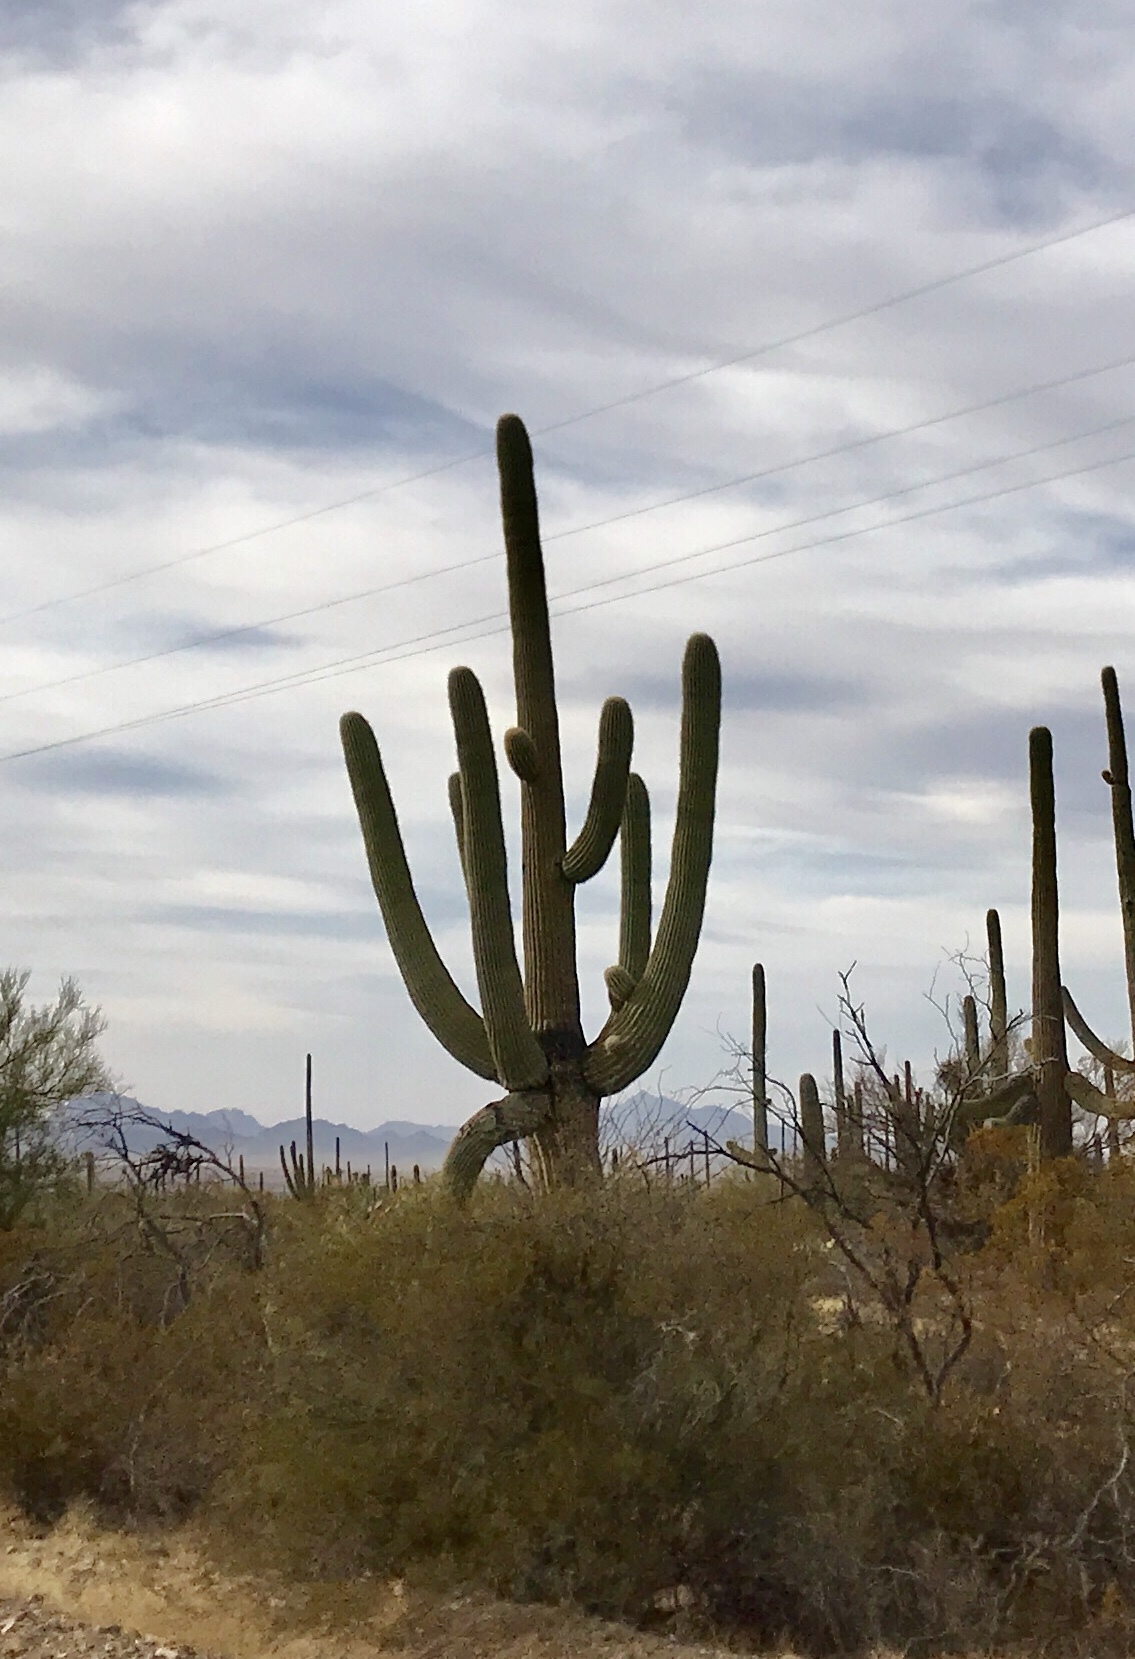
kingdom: Plantae
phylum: Tracheophyta
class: Magnoliopsida
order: Caryophyllales
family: Cactaceae
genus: Carnegiea
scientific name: Carnegiea gigantea
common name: Saguaro
